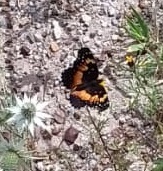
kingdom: Animalia
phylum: Arthropoda
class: Insecta
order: Lepidoptera
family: Nymphalidae
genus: Chlosyne
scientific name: Chlosyne lacinia
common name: Bordered patch
